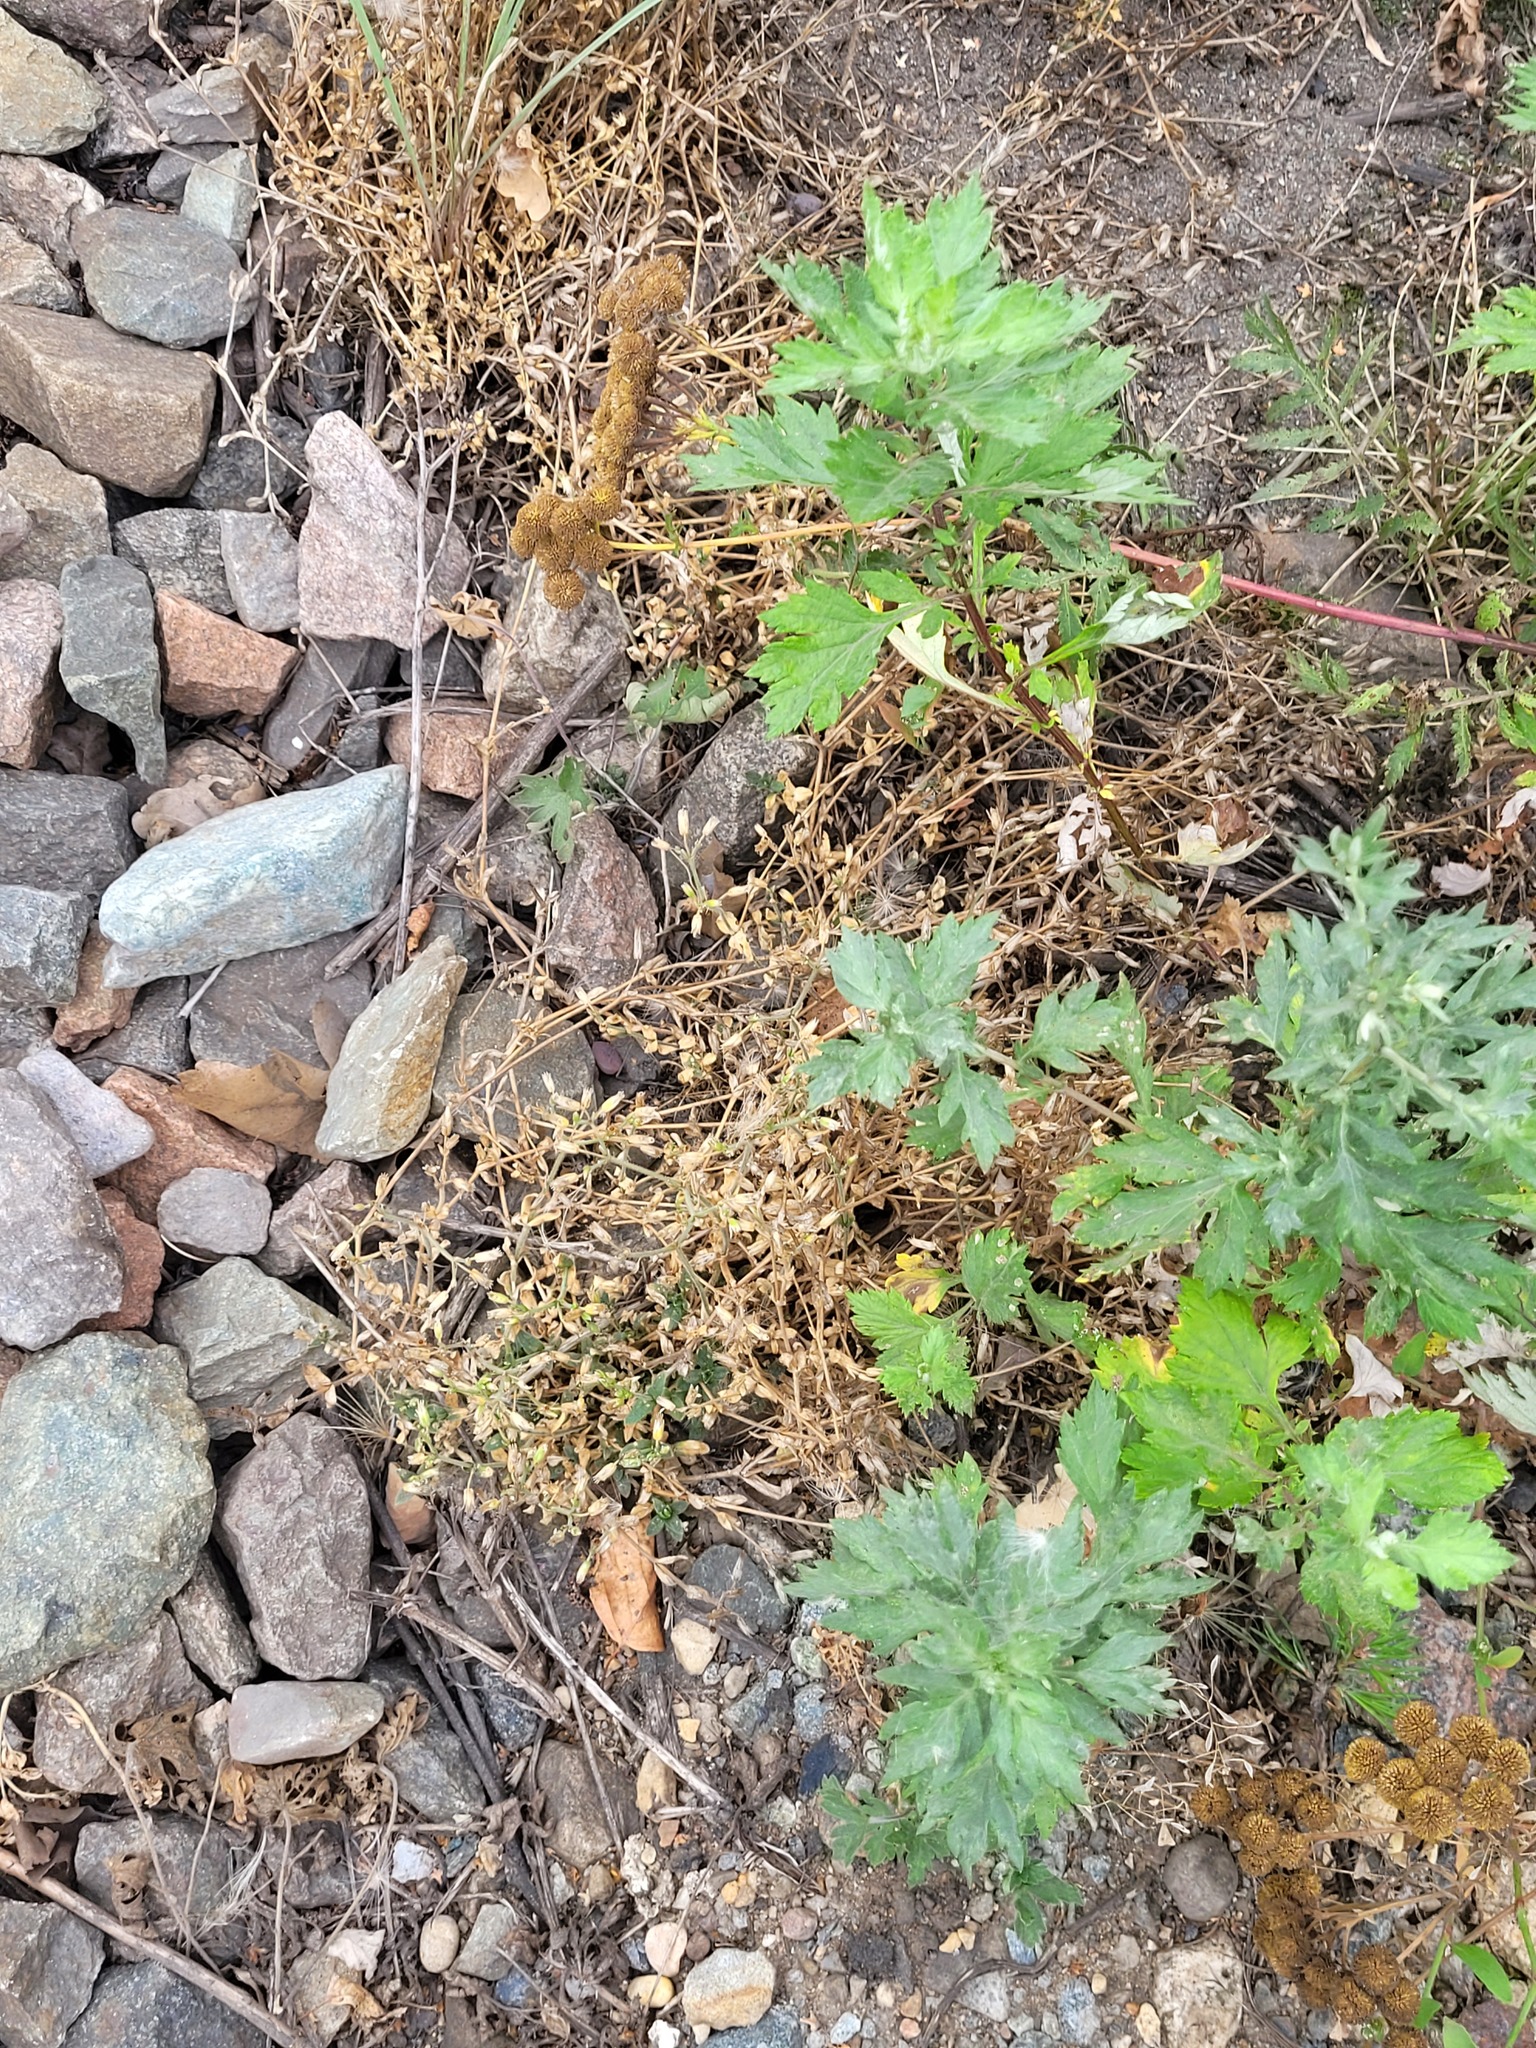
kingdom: Plantae
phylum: Tracheophyta
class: Magnoliopsida
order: Caryophyllales
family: Caryophyllaceae
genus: Cerastium
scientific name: Cerastium holosteoides
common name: Big chickweed
